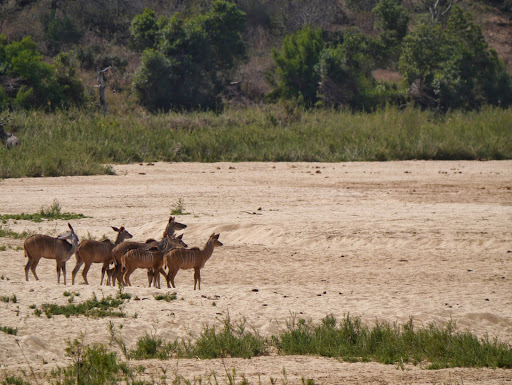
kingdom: Animalia
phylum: Chordata
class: Mammalia
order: Artiodactyla
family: Bovidae
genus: Tragelaphus
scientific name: Tragelaphus strepsiceros
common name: Greater kudu
